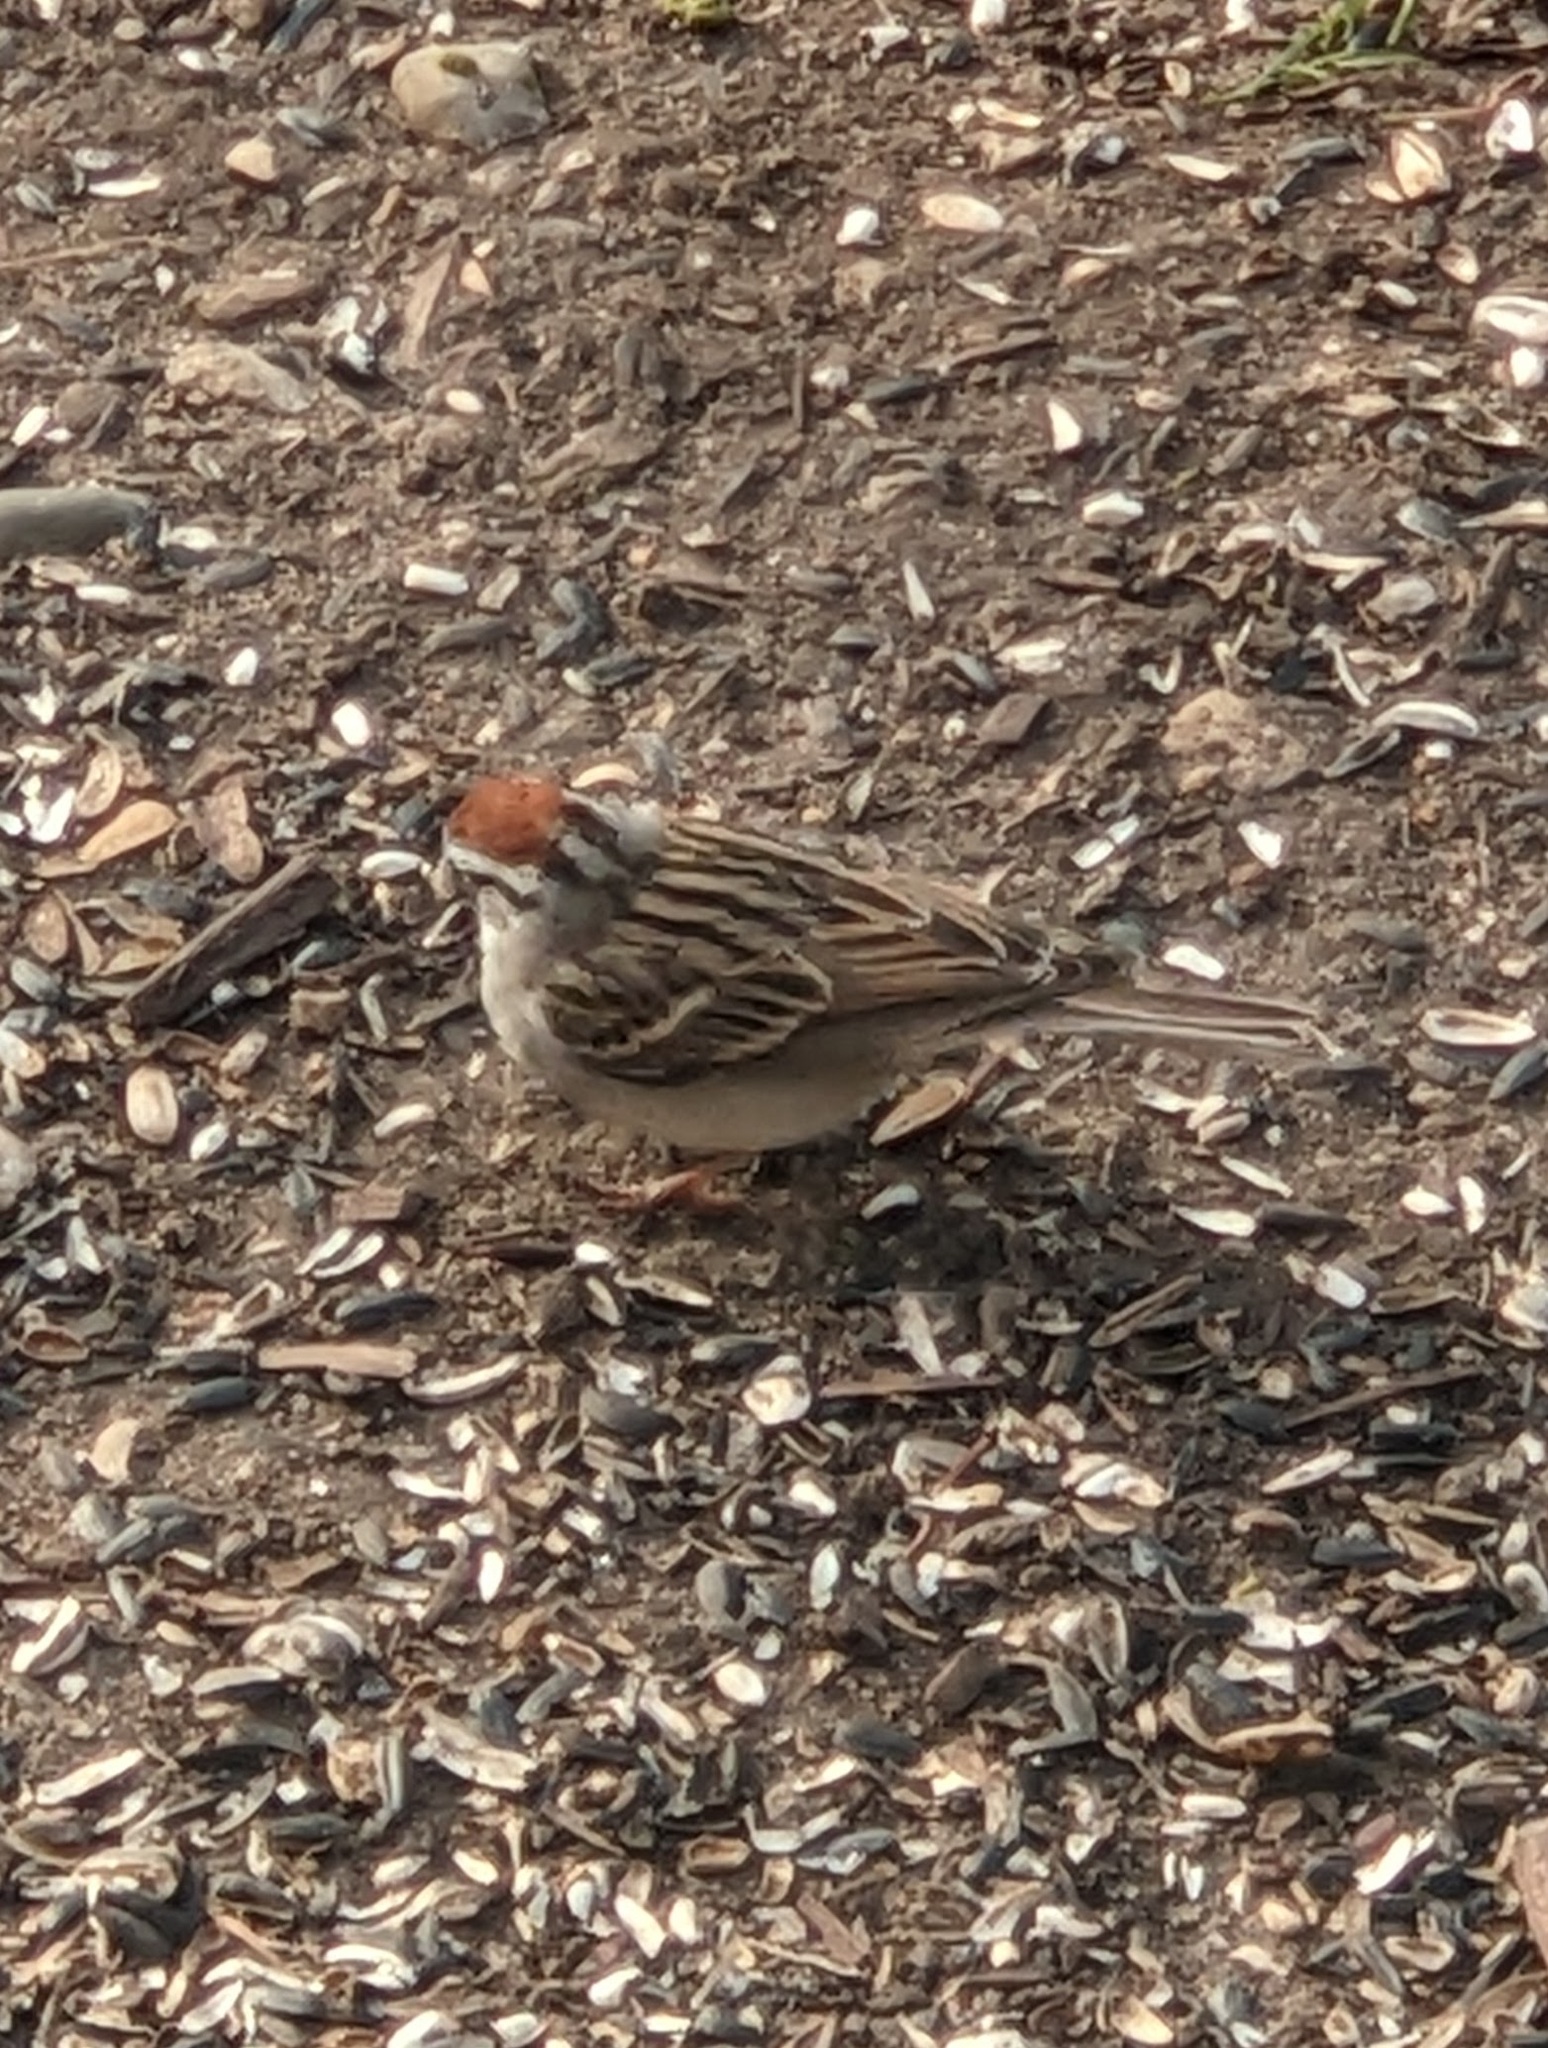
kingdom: Animalia
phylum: Chordata
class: Aves
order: Passeriformes
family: Passerellidae
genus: Spizella
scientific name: Spizella passerina
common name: Chipping sparrow
